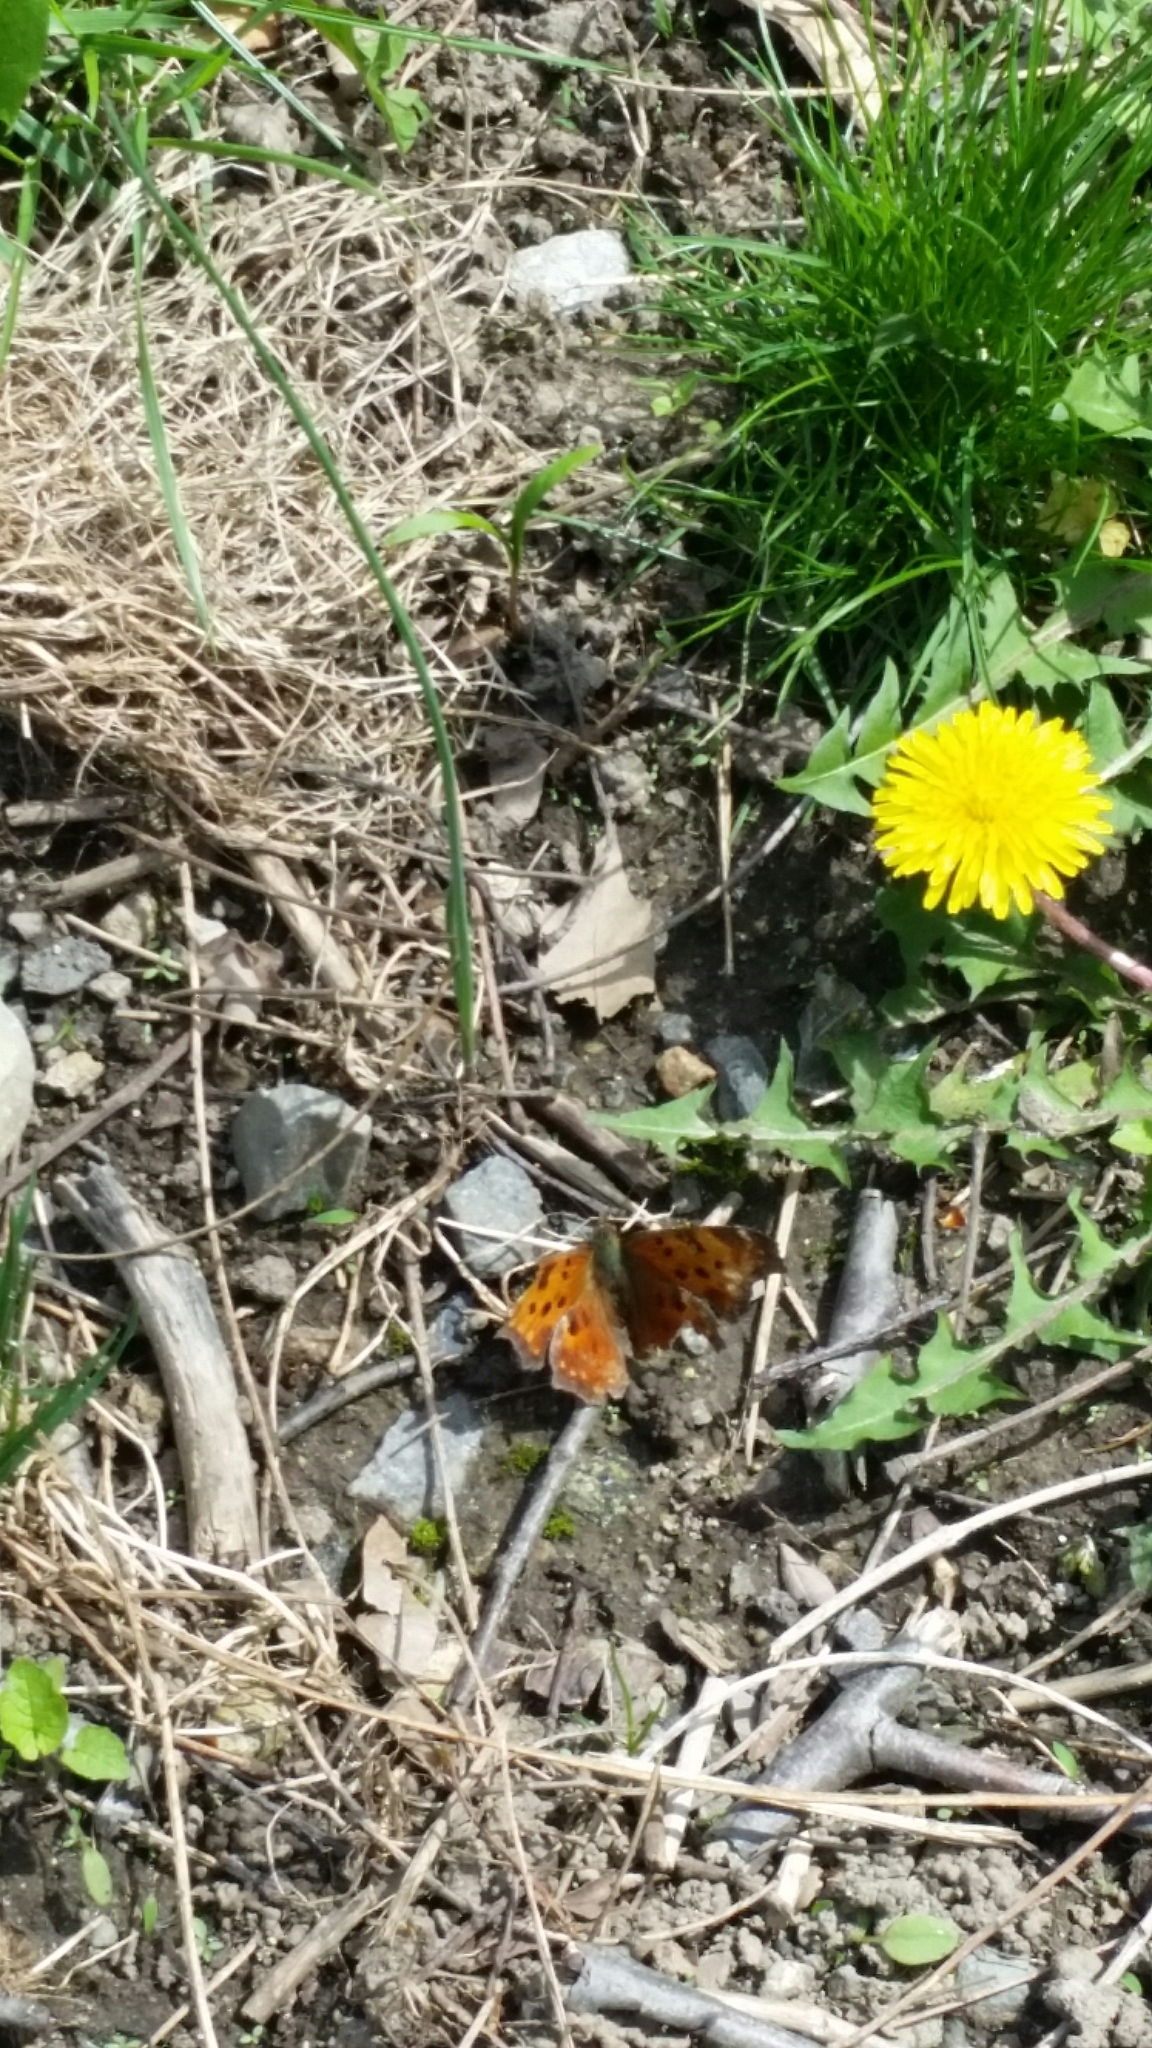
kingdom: Animalia
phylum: Arthropoda
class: Insecta
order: Lepidoptera
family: Nymphalidae
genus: Polygonia
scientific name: Polygonia comma
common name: Eastern comma
